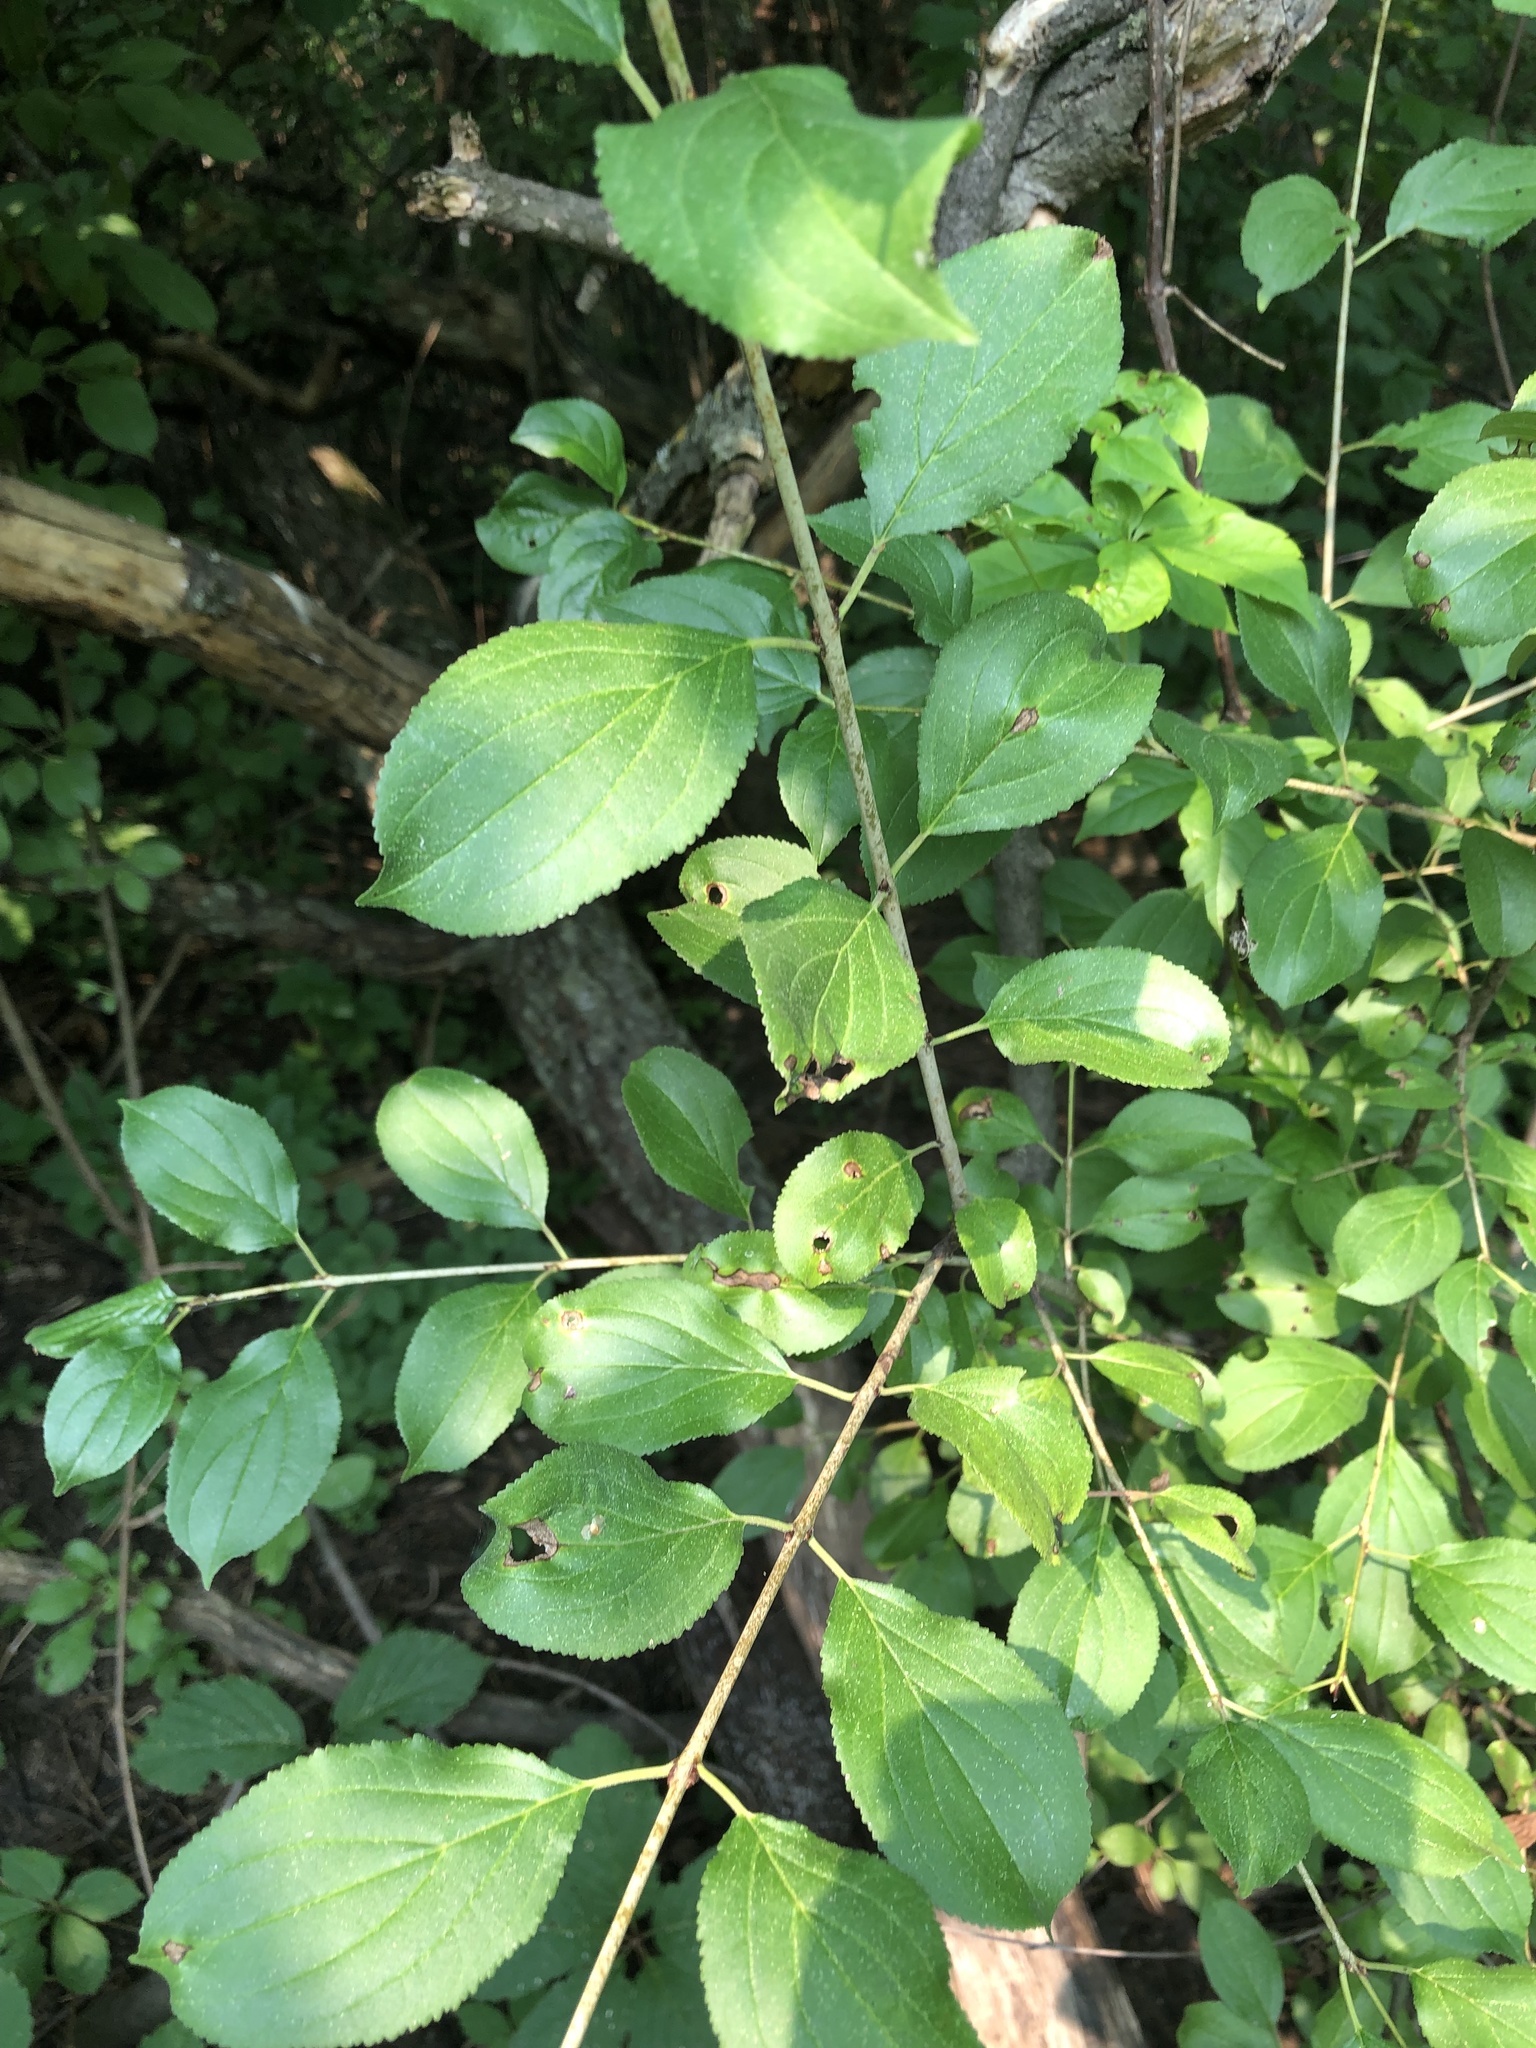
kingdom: Plantae
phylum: Tracheophyta
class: Magnoliopsida
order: Rosales
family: Rhamnaceae
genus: Rhamnus
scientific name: Rhamnus cathartica
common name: Common buckthorn
